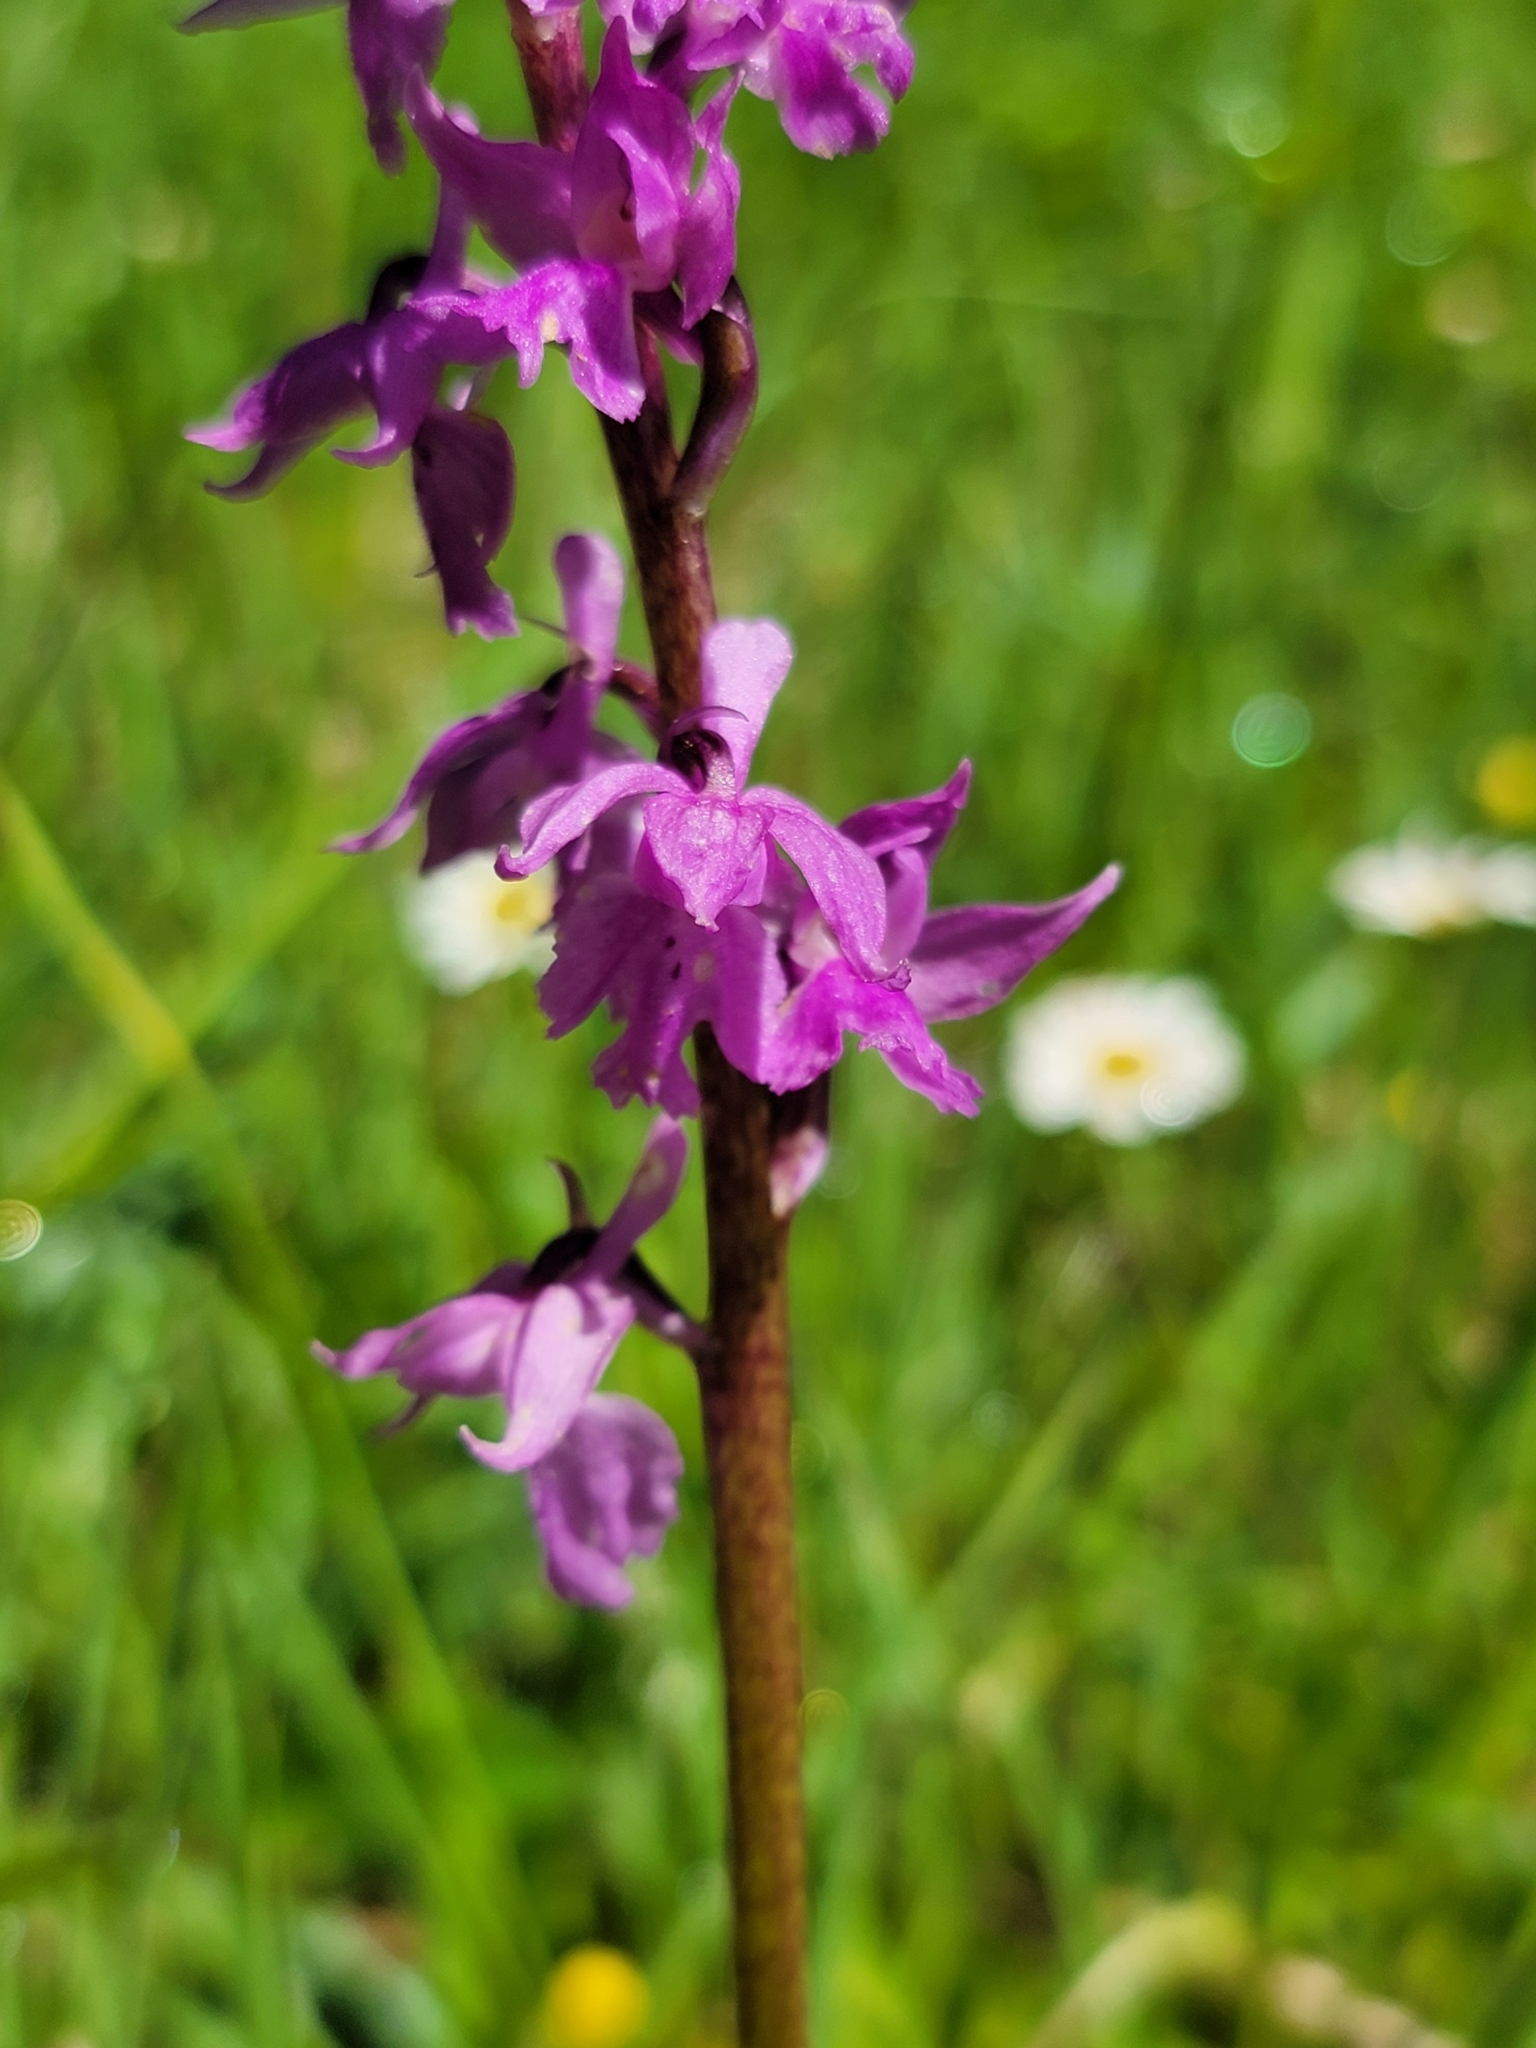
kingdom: Plantae
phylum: Tracheophyta
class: Liliopsida
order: Asparagales
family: Orchidaceae
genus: Orchis
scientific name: Orchis mascula
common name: Early-purple orchid
